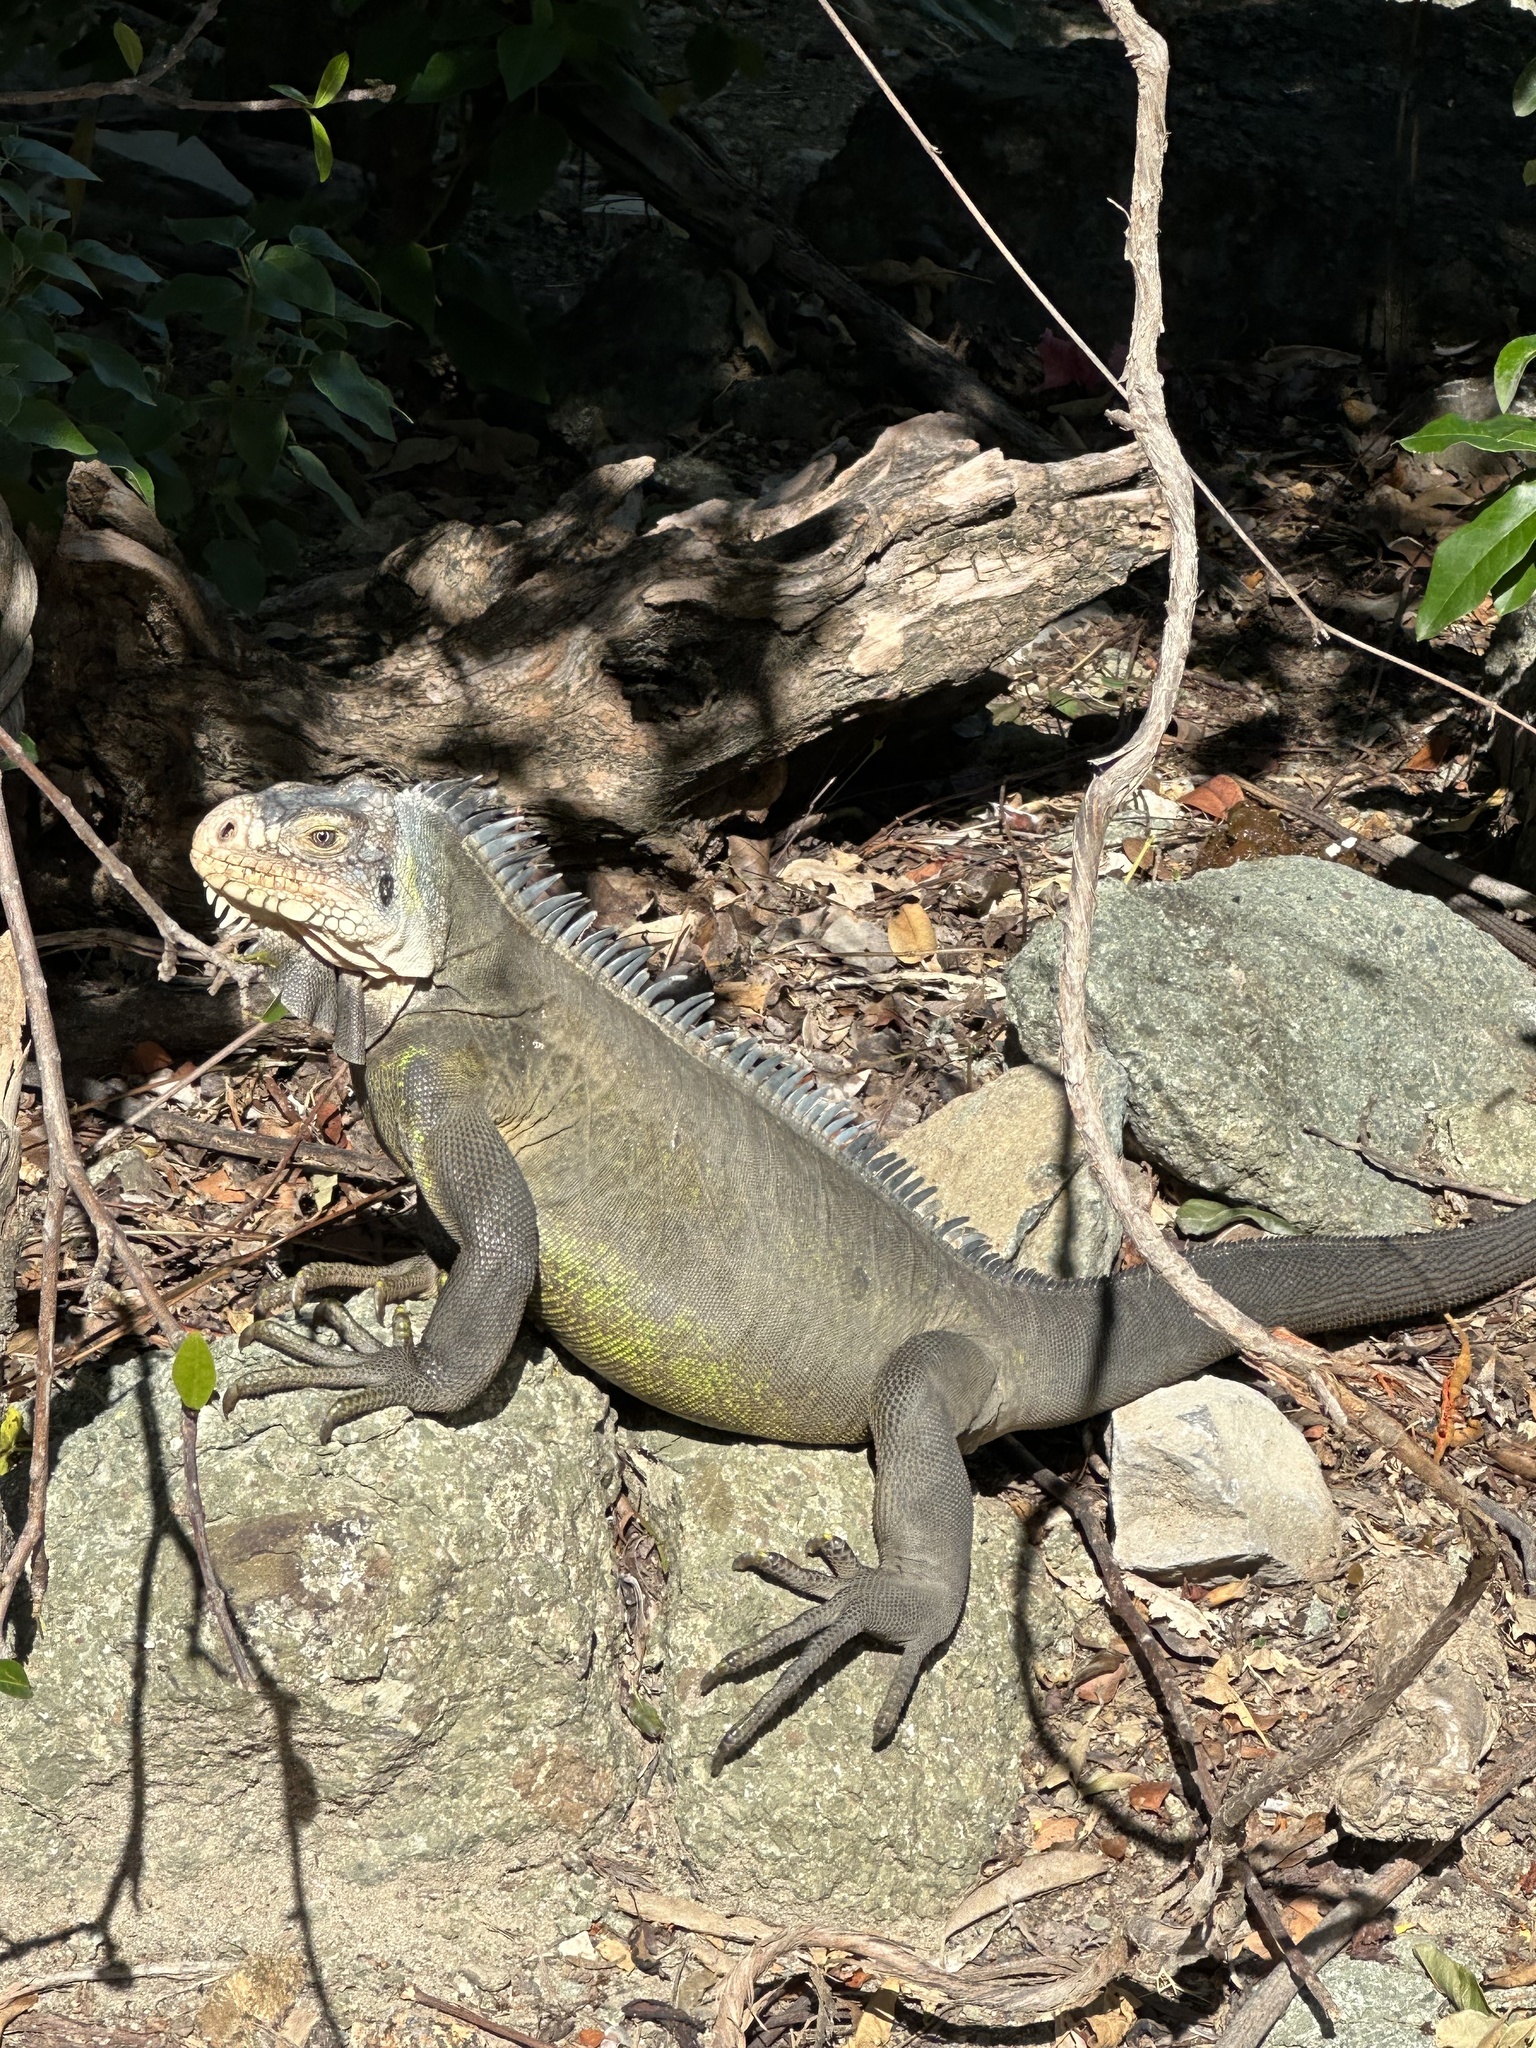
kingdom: Animalia
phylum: Chordata
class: Squamata
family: Iguanidae
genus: Iguana
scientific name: Iguana delicatissima
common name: West indian iguana
